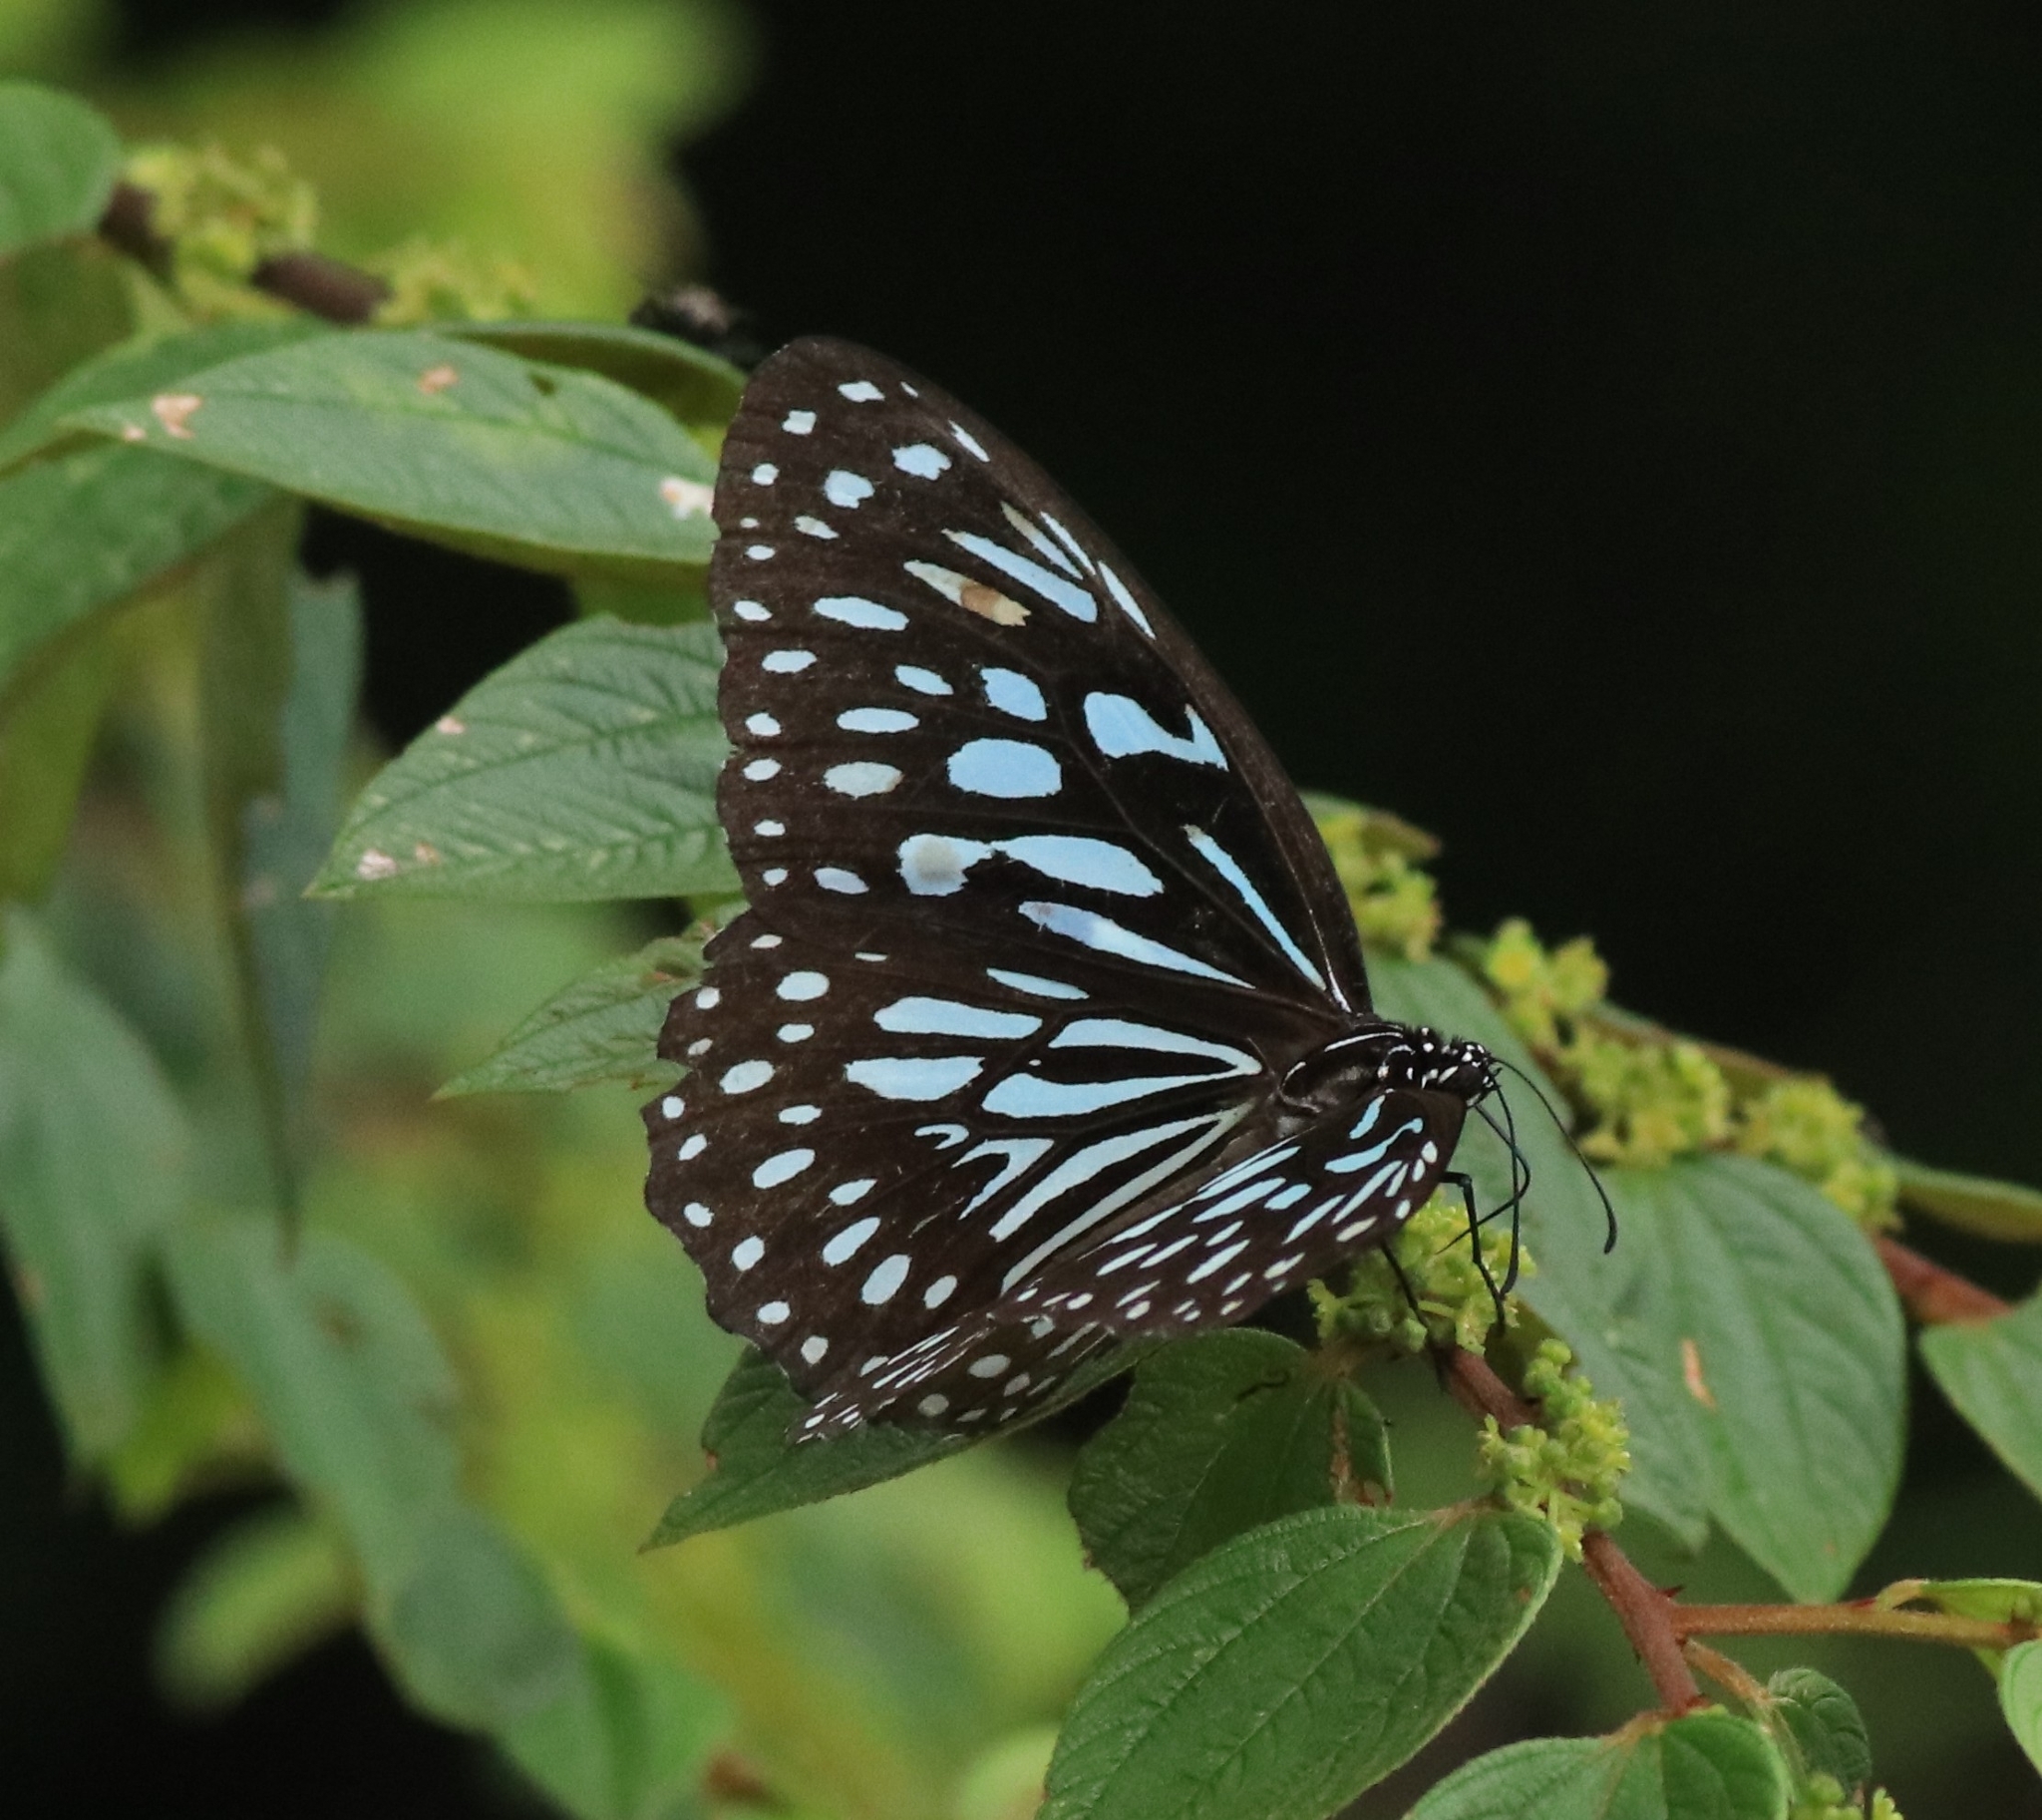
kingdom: Animalia
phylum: Arthropoda
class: Insecta
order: Lepidoptera
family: Nymphalidae
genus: Tirumala
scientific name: Tirumala septentrionis
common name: Dark blue tiger butterfly
